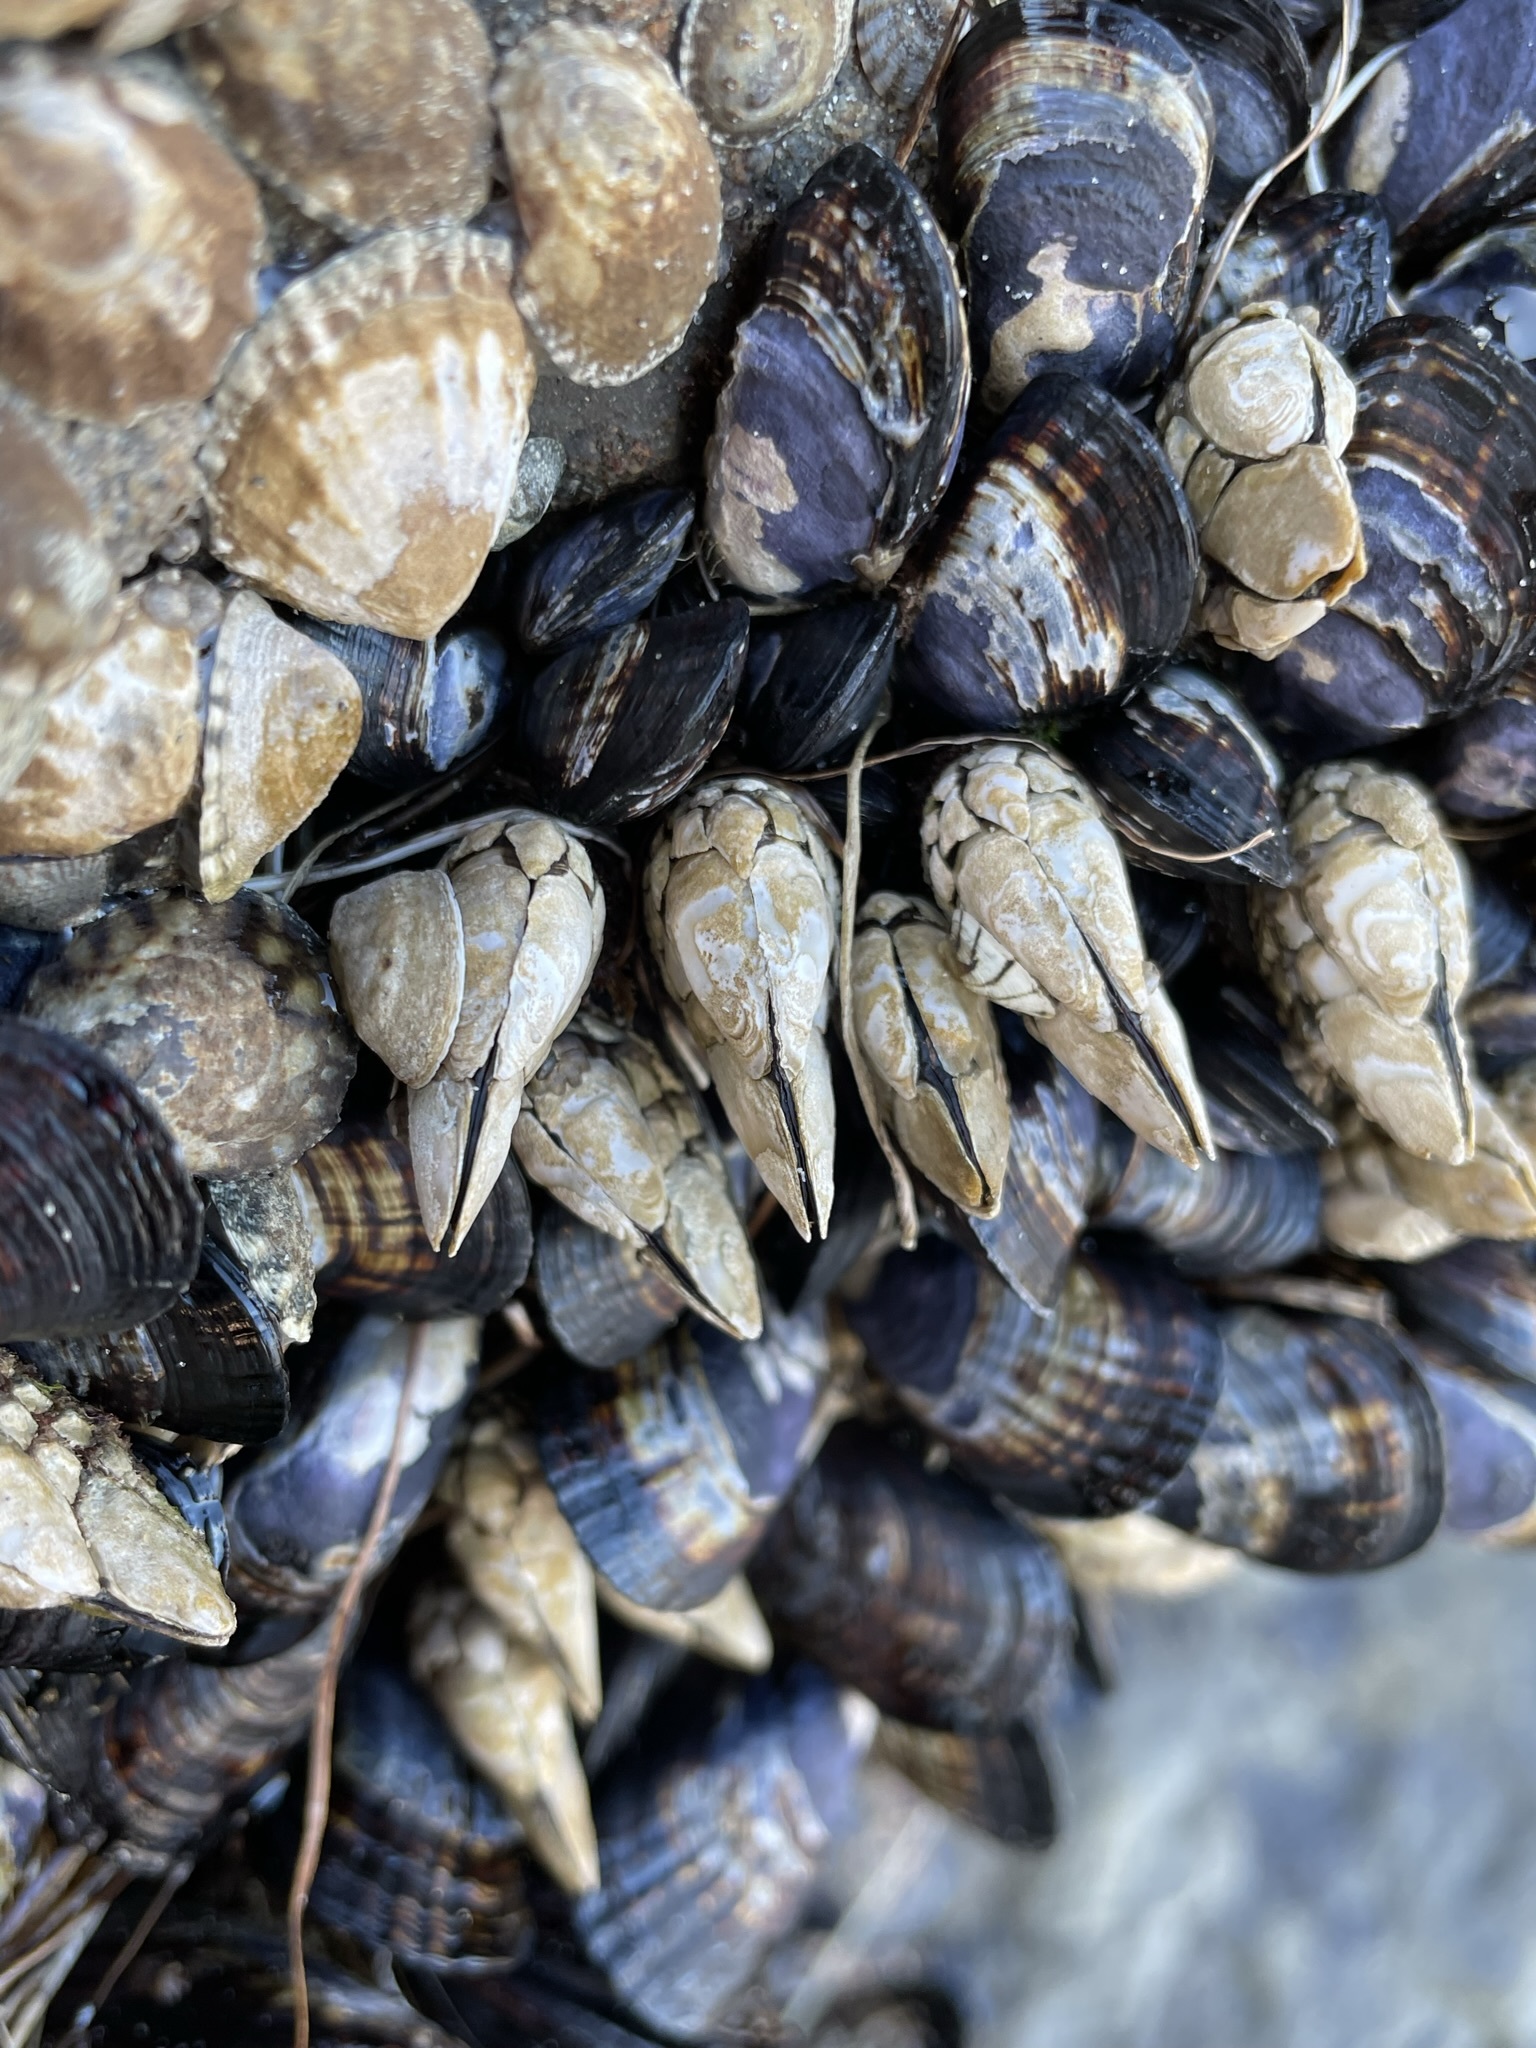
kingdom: Animalia
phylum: Arthropoda
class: Maxillopoda
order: Pedunculata
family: Pollicipedidae
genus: Pollicipes
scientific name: Pollicipes polymerus
